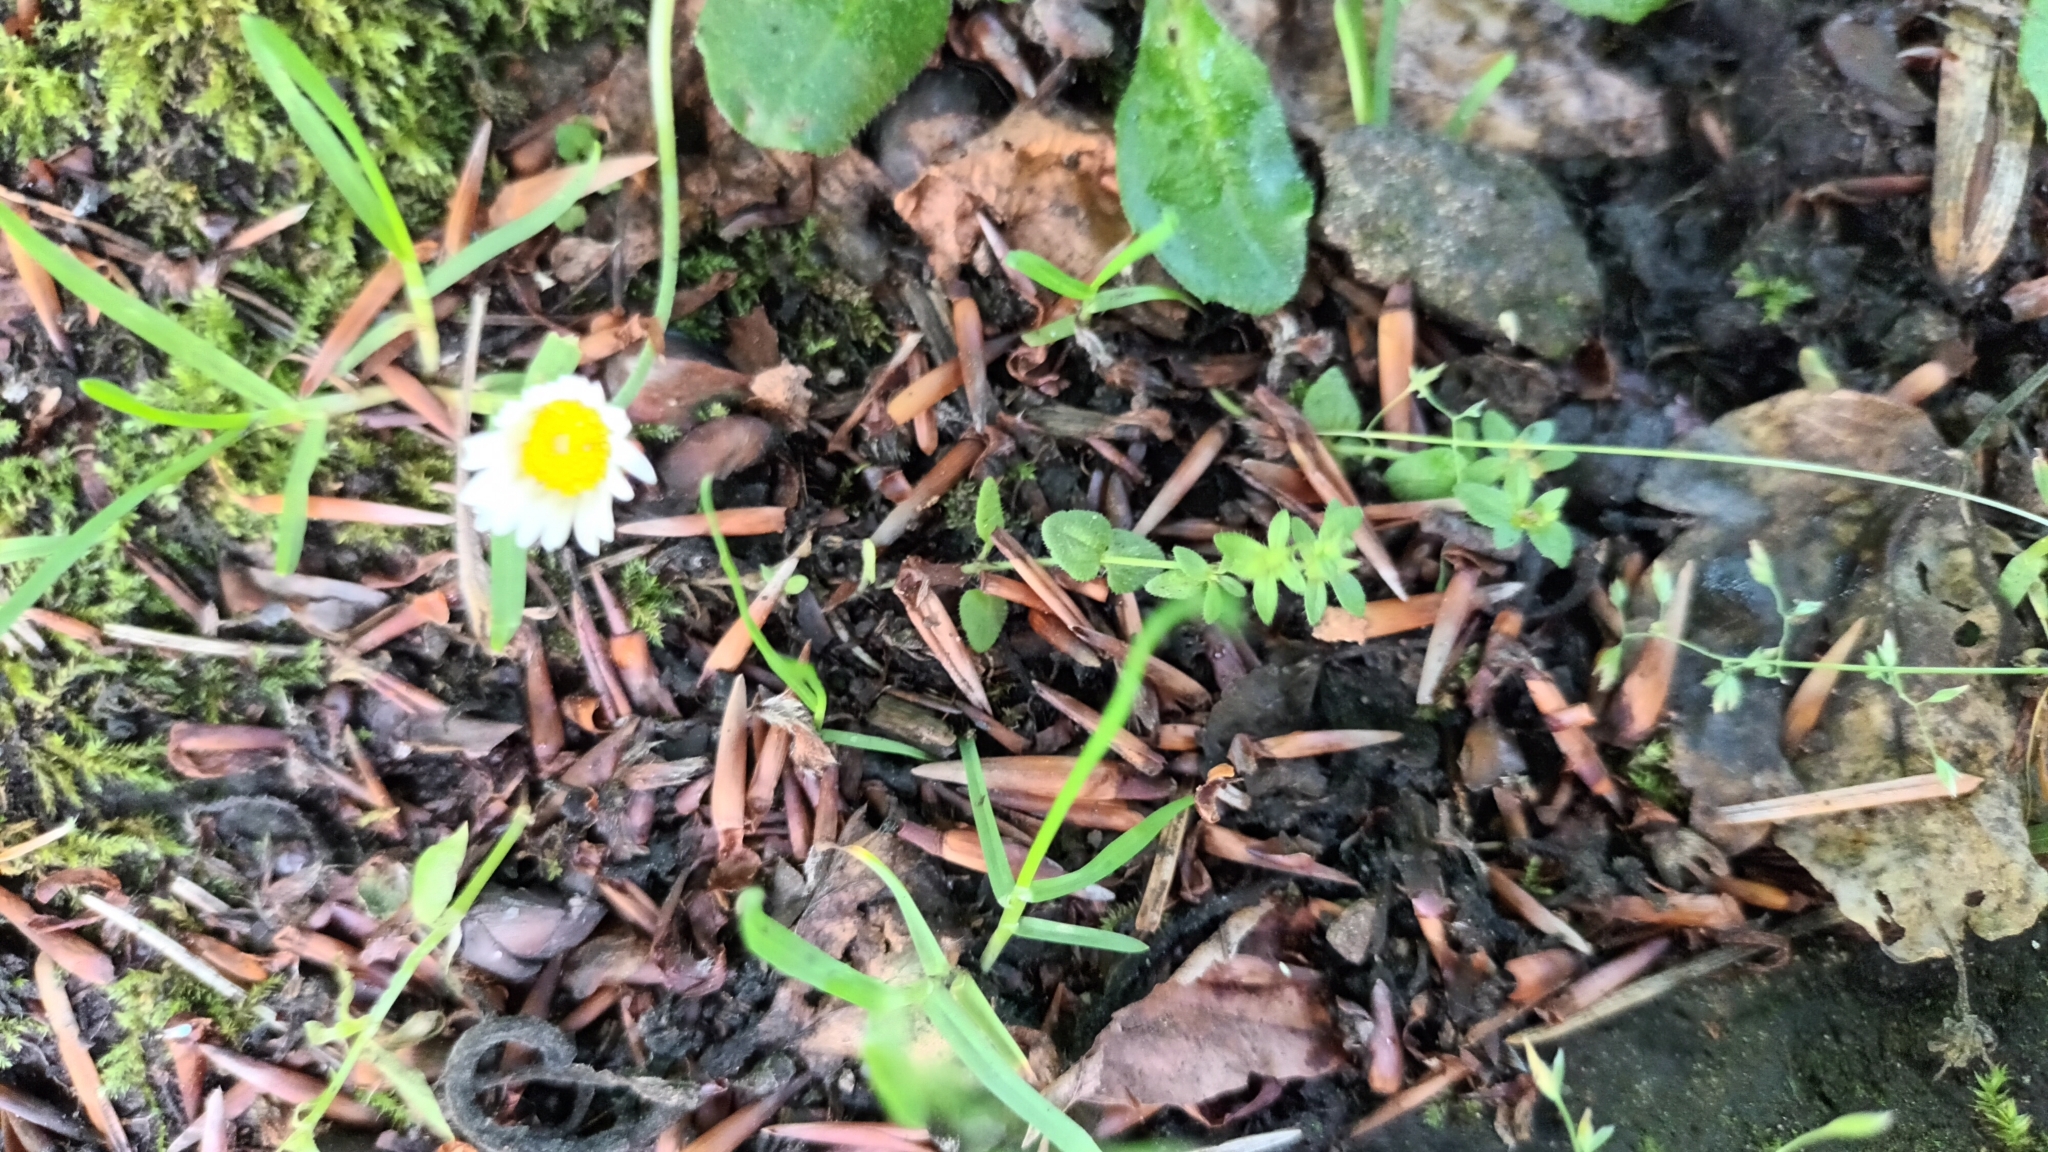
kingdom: Plantae
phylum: Tracheophyta
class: Magnoliopsida
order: Asterales
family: Asteraceae
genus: Bellis
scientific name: Bellis perennis
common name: Lawndaisy
